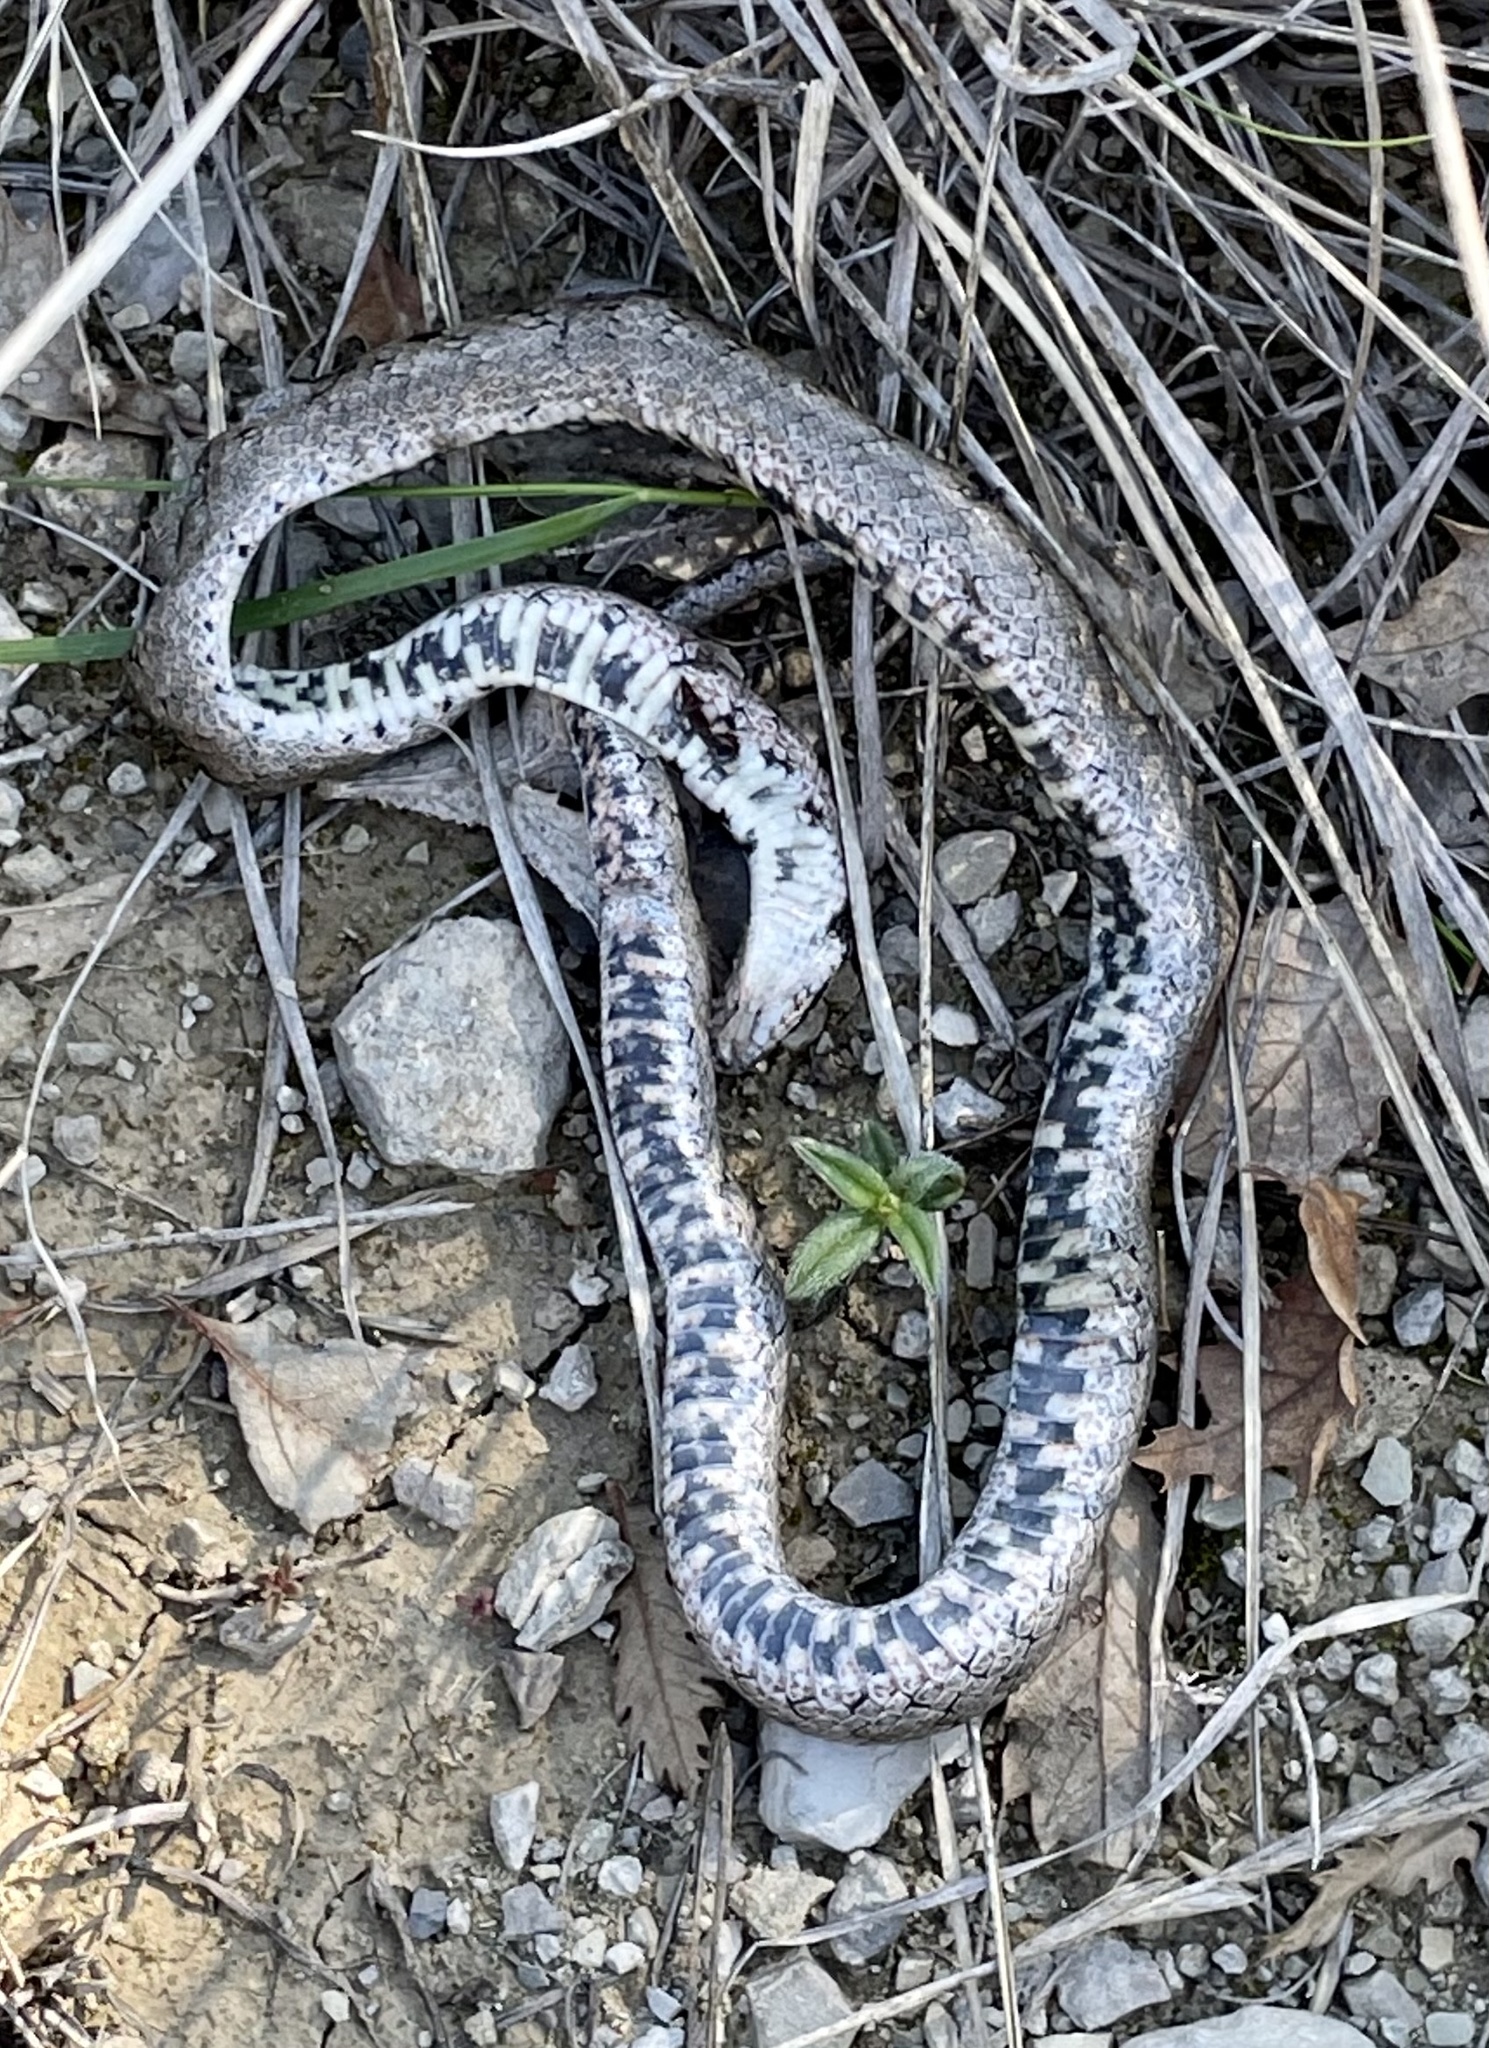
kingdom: Animalia
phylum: Chordata
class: Squamata
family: Colubridae
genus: Coronella
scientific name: Coronella girondica
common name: Southern smooth snake
